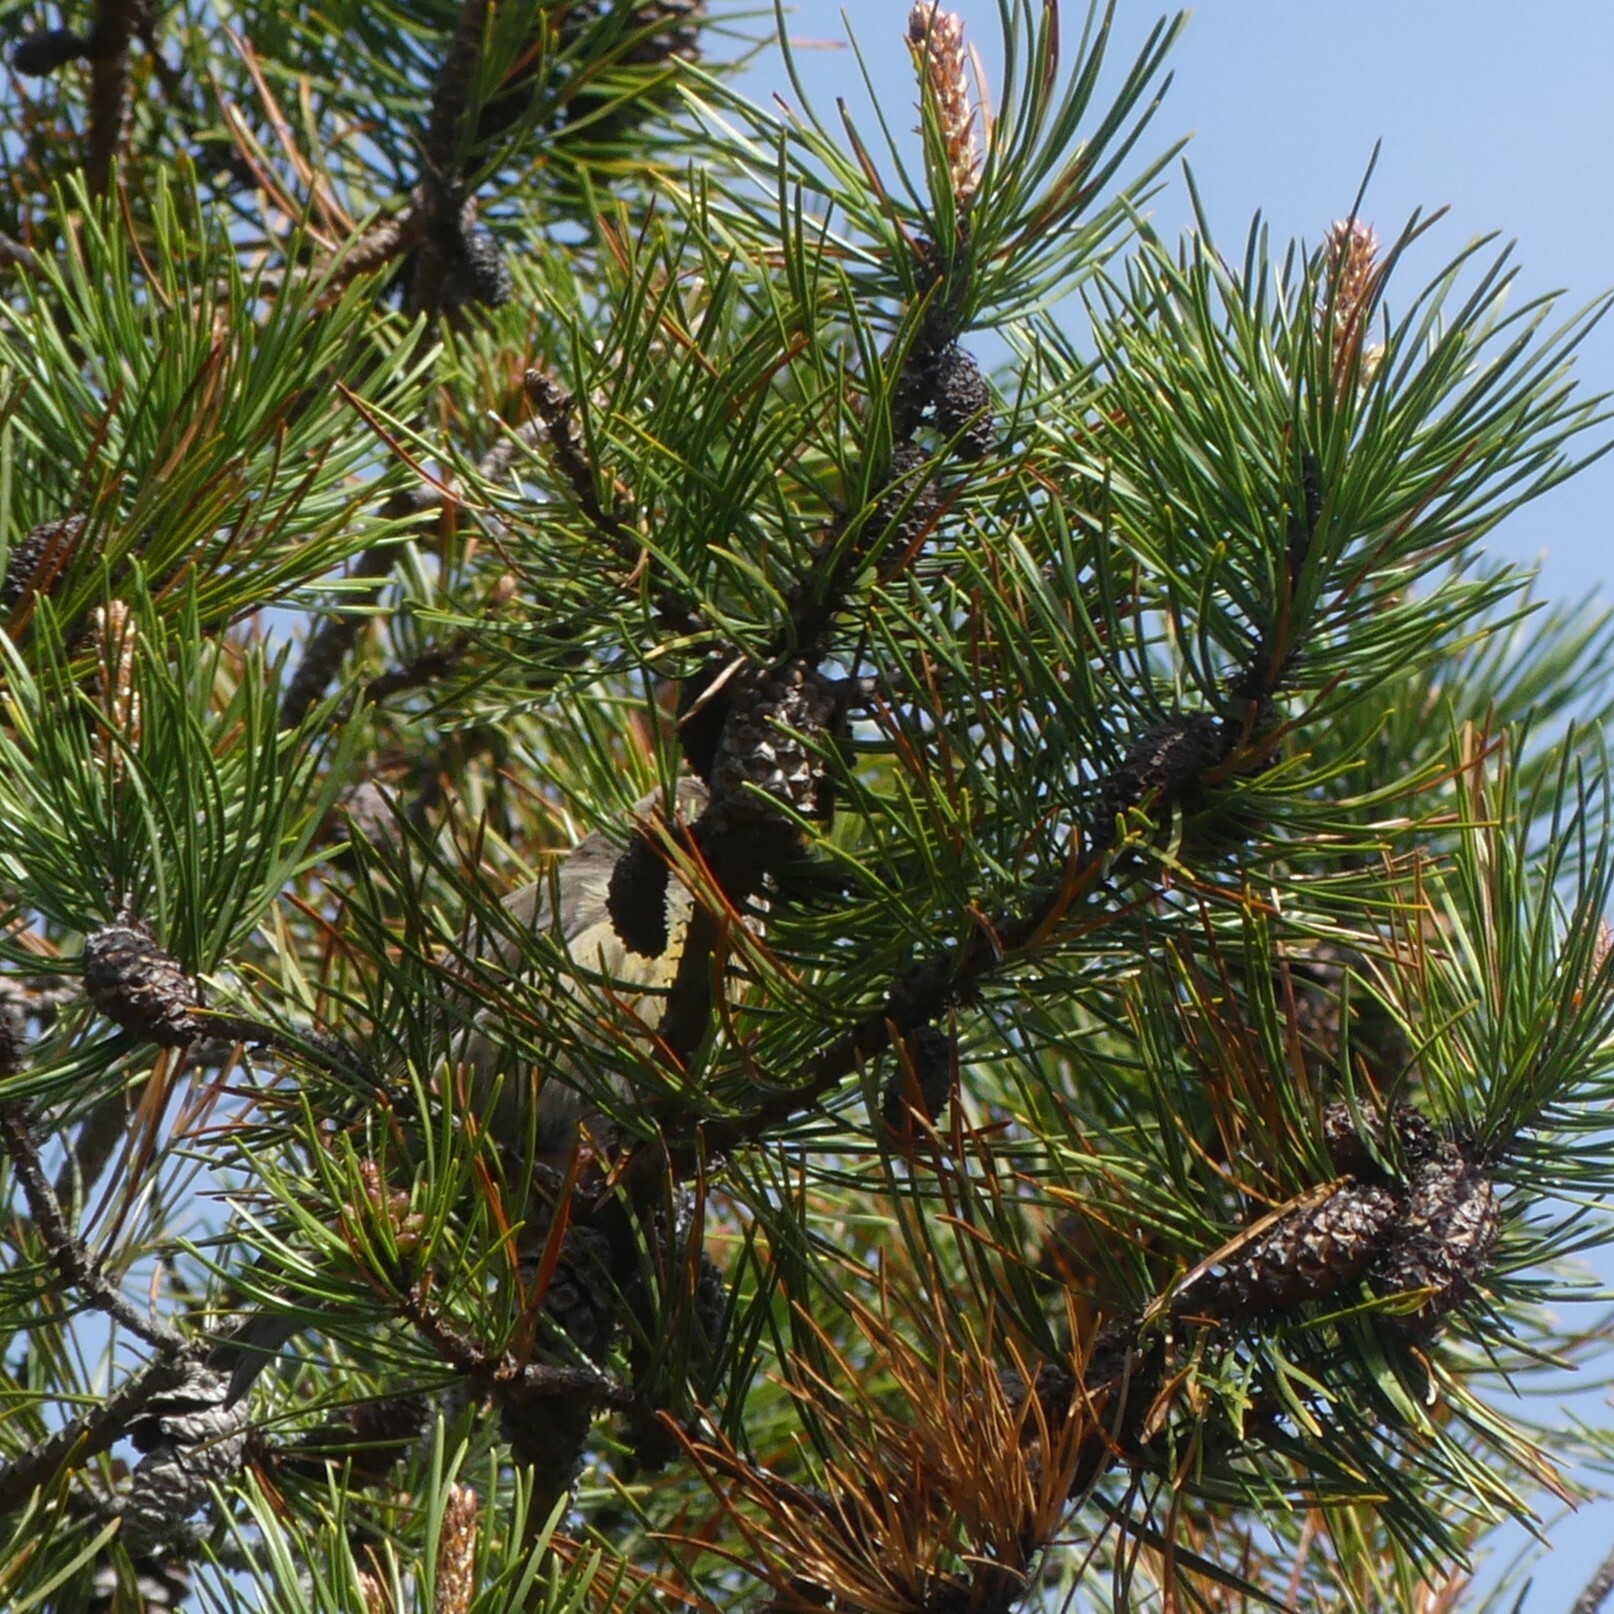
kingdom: Animalia
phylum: Chordata
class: Aves
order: Passeriformes
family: Fringillidae
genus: Loxia
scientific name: Loxia curvirostra
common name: Red crossbill
